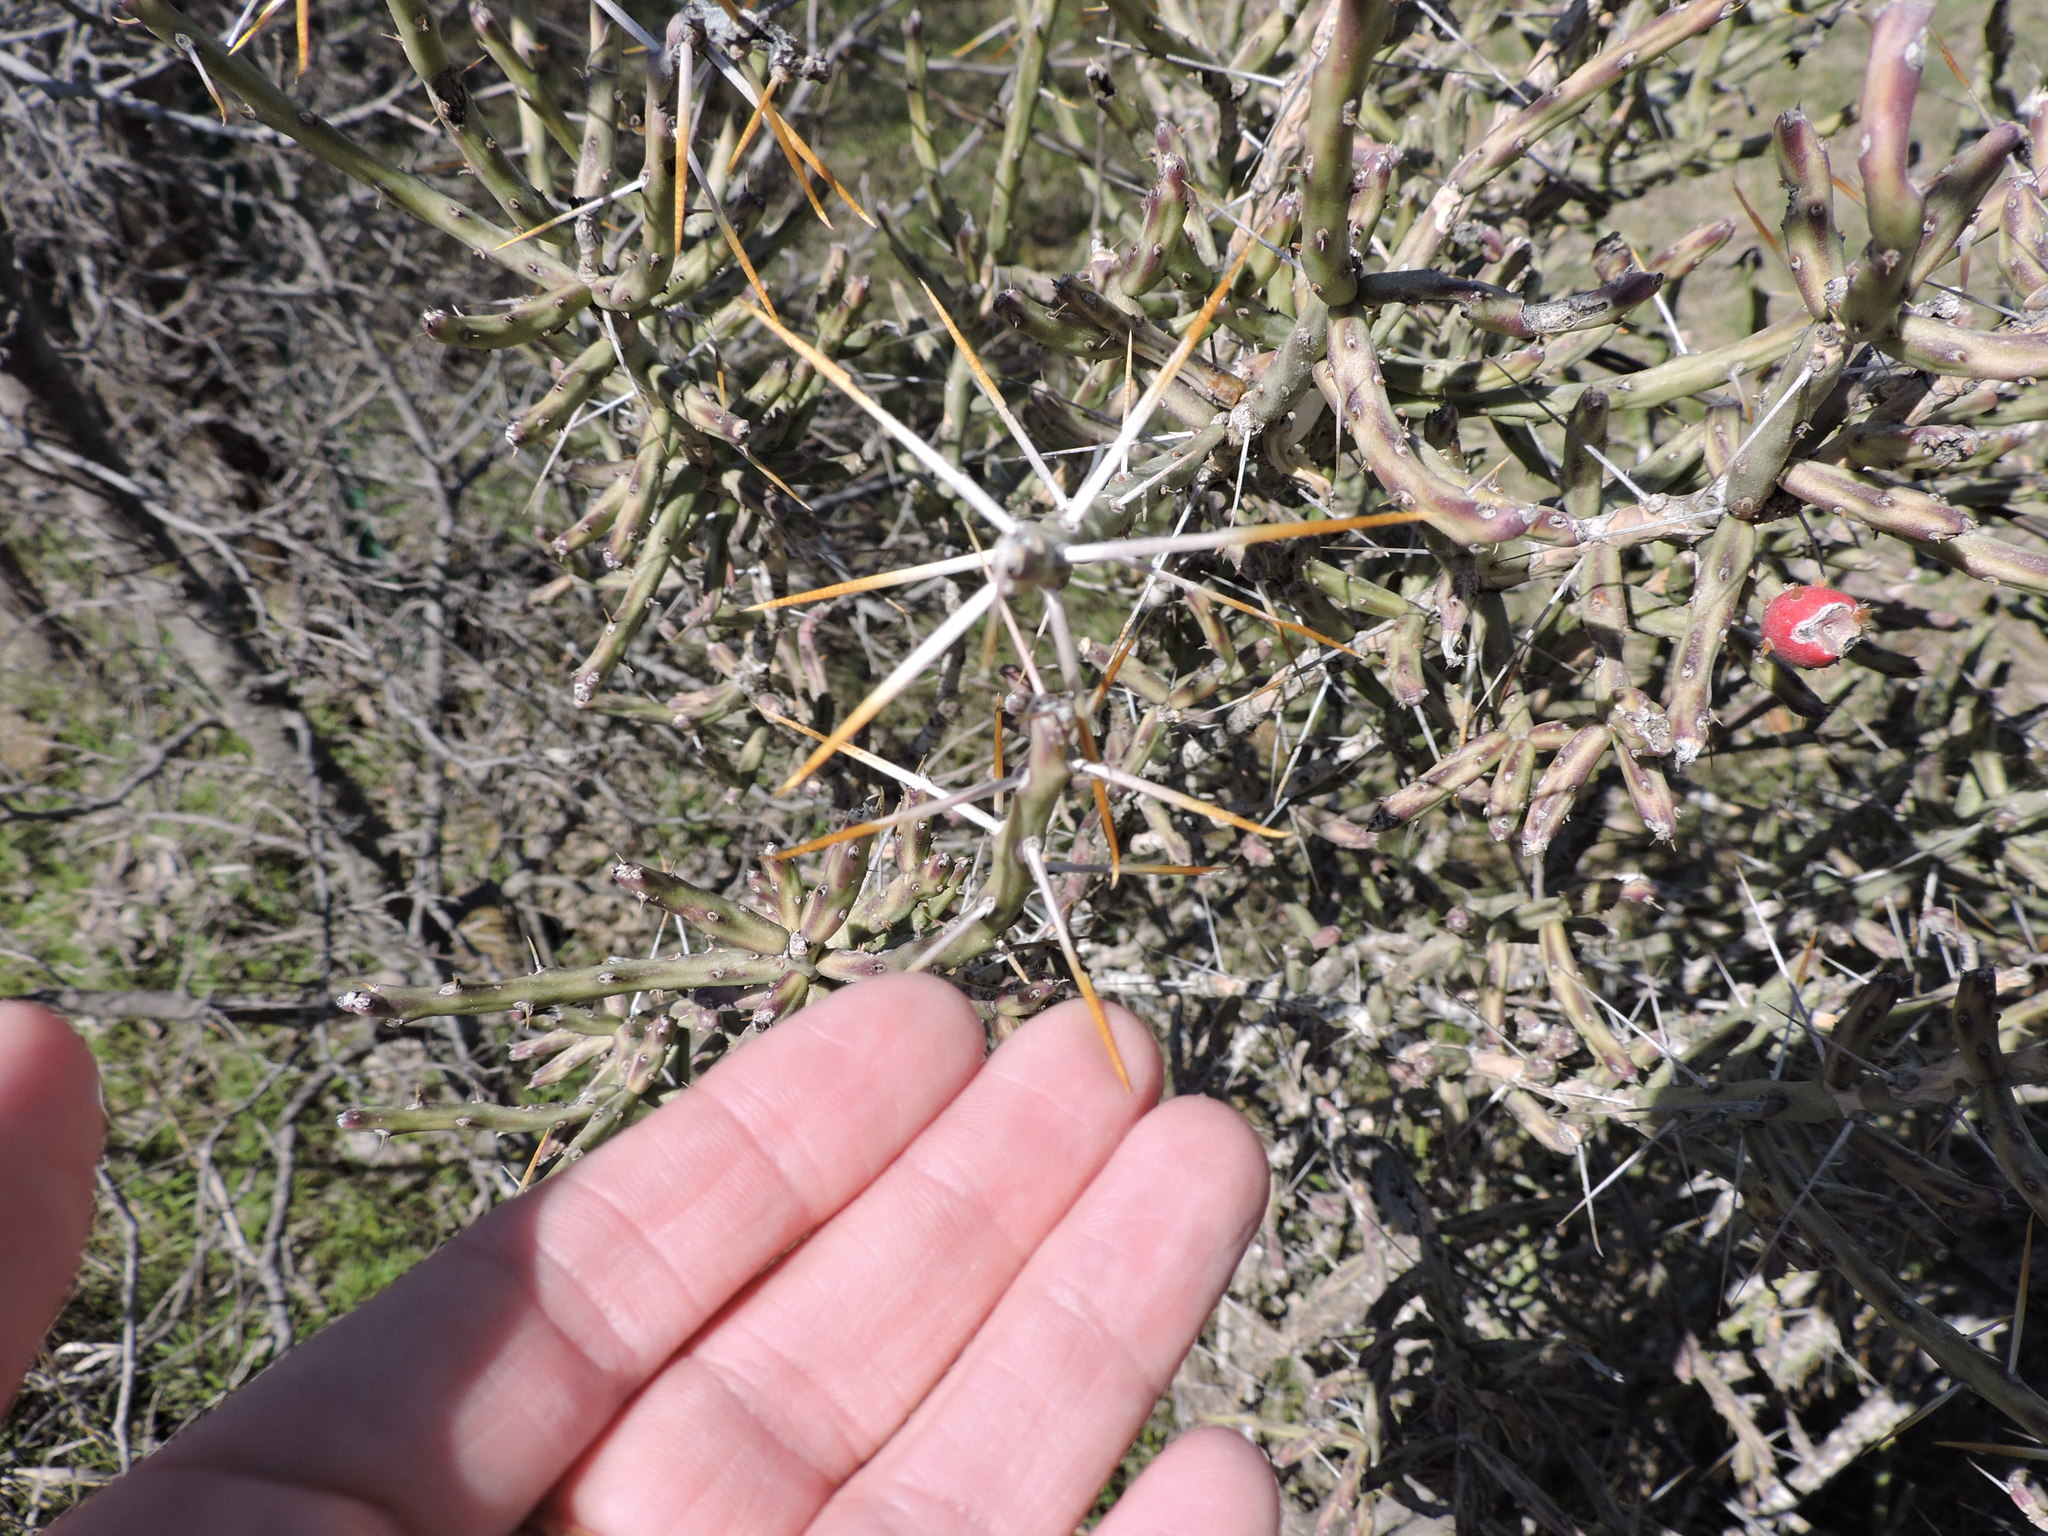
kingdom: Plantae
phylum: Tracheophyta
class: Magnoliopsida
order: Caryophyllales
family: Cactaceae
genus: Cylindropuntia
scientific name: Cylindropuntia leptocaulis
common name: Christmas cactus
